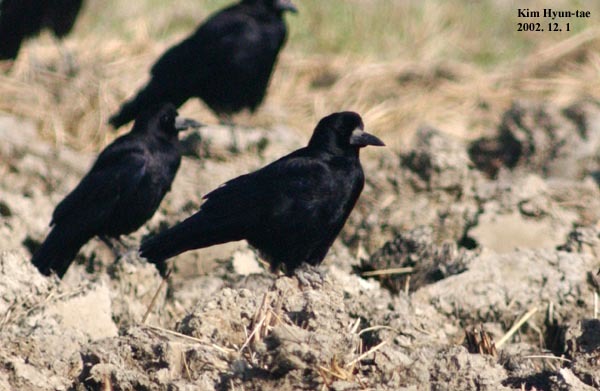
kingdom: Animalia
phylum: Chordata
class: Aves
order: Passeriformes
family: Corvidae
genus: Corvus
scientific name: Corvus frugilegus
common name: Rook
